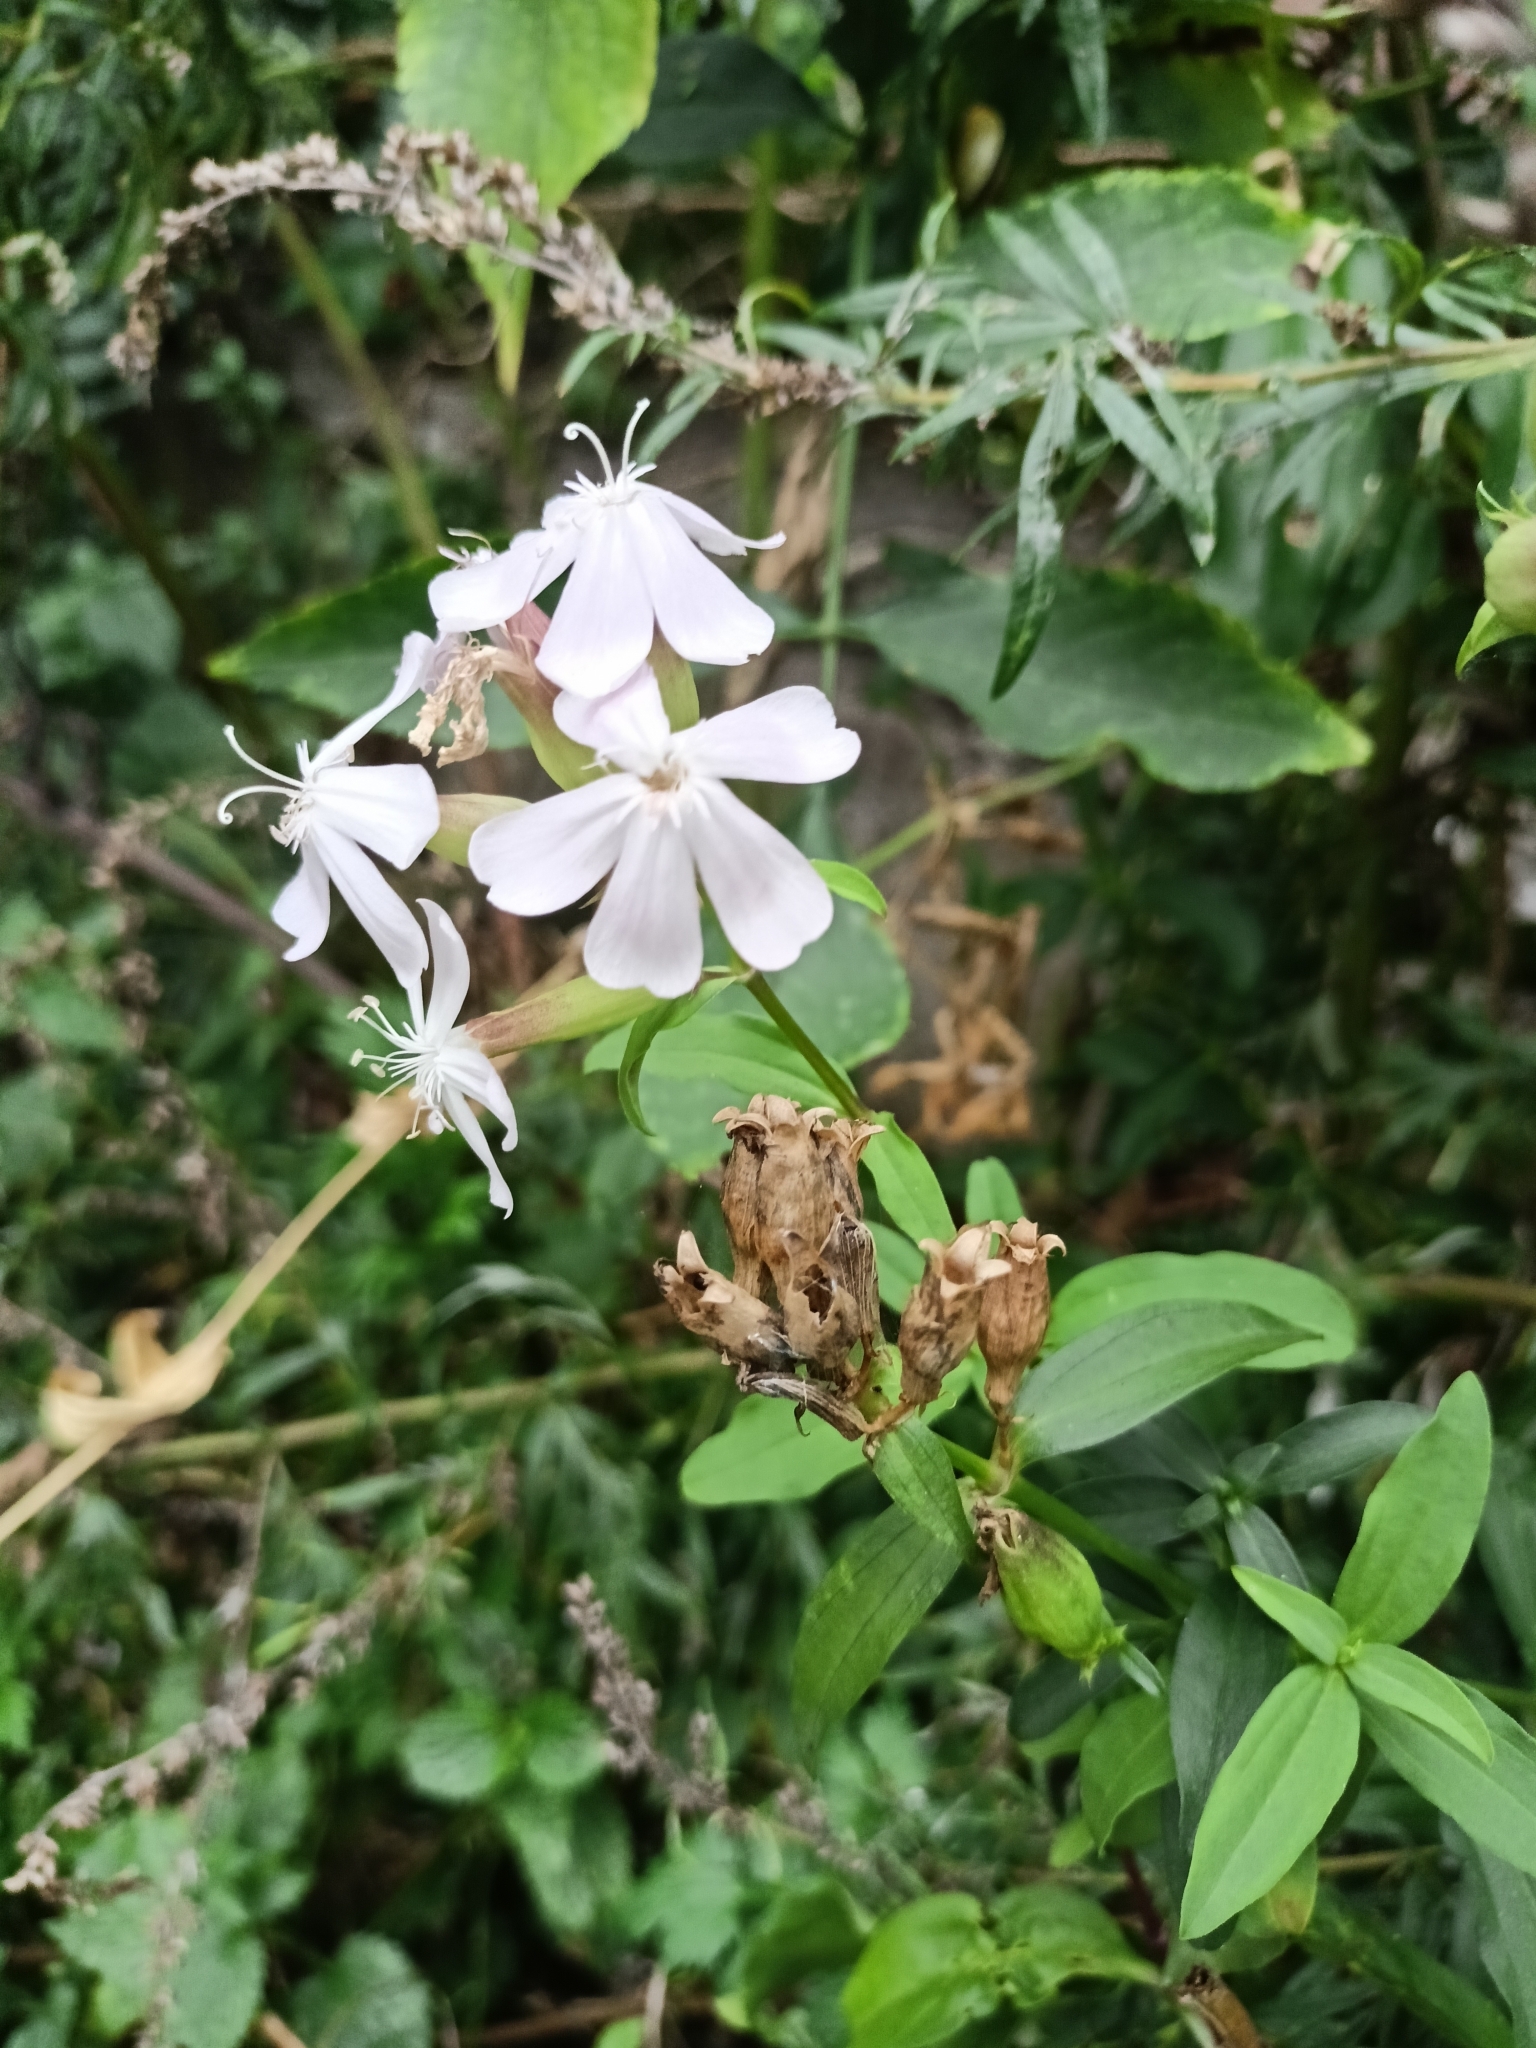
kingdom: Plantae
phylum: Tracheophyta
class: Magnoliopsida
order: Caryophyllales
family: Caryophyllaceae
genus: Saponaria
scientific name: Saponaria officinalis
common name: Soapwort
